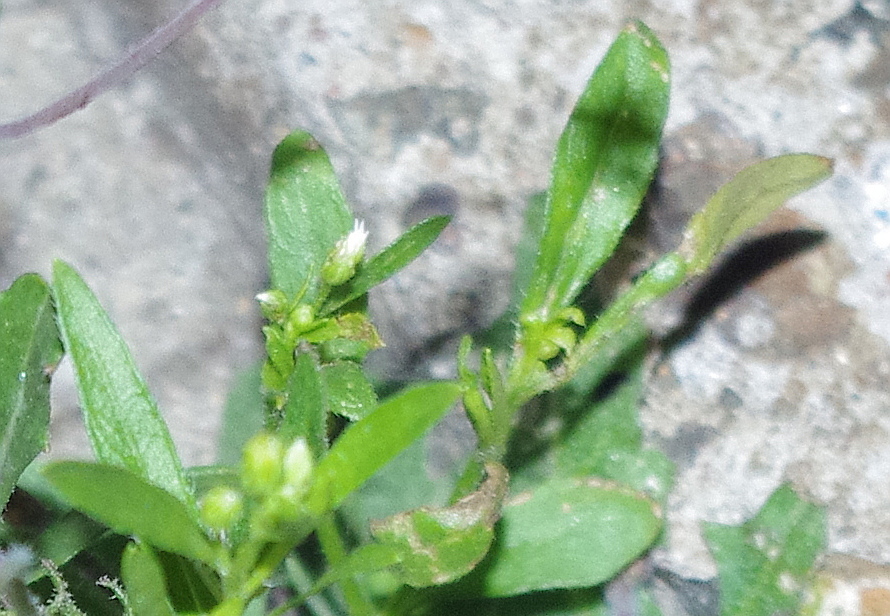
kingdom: Plantae
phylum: Tracheophyta
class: Magnoliopsida
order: Asterales
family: Asteraceae
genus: Erigeron
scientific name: Erigeron canadensis
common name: Canadian fleabane
